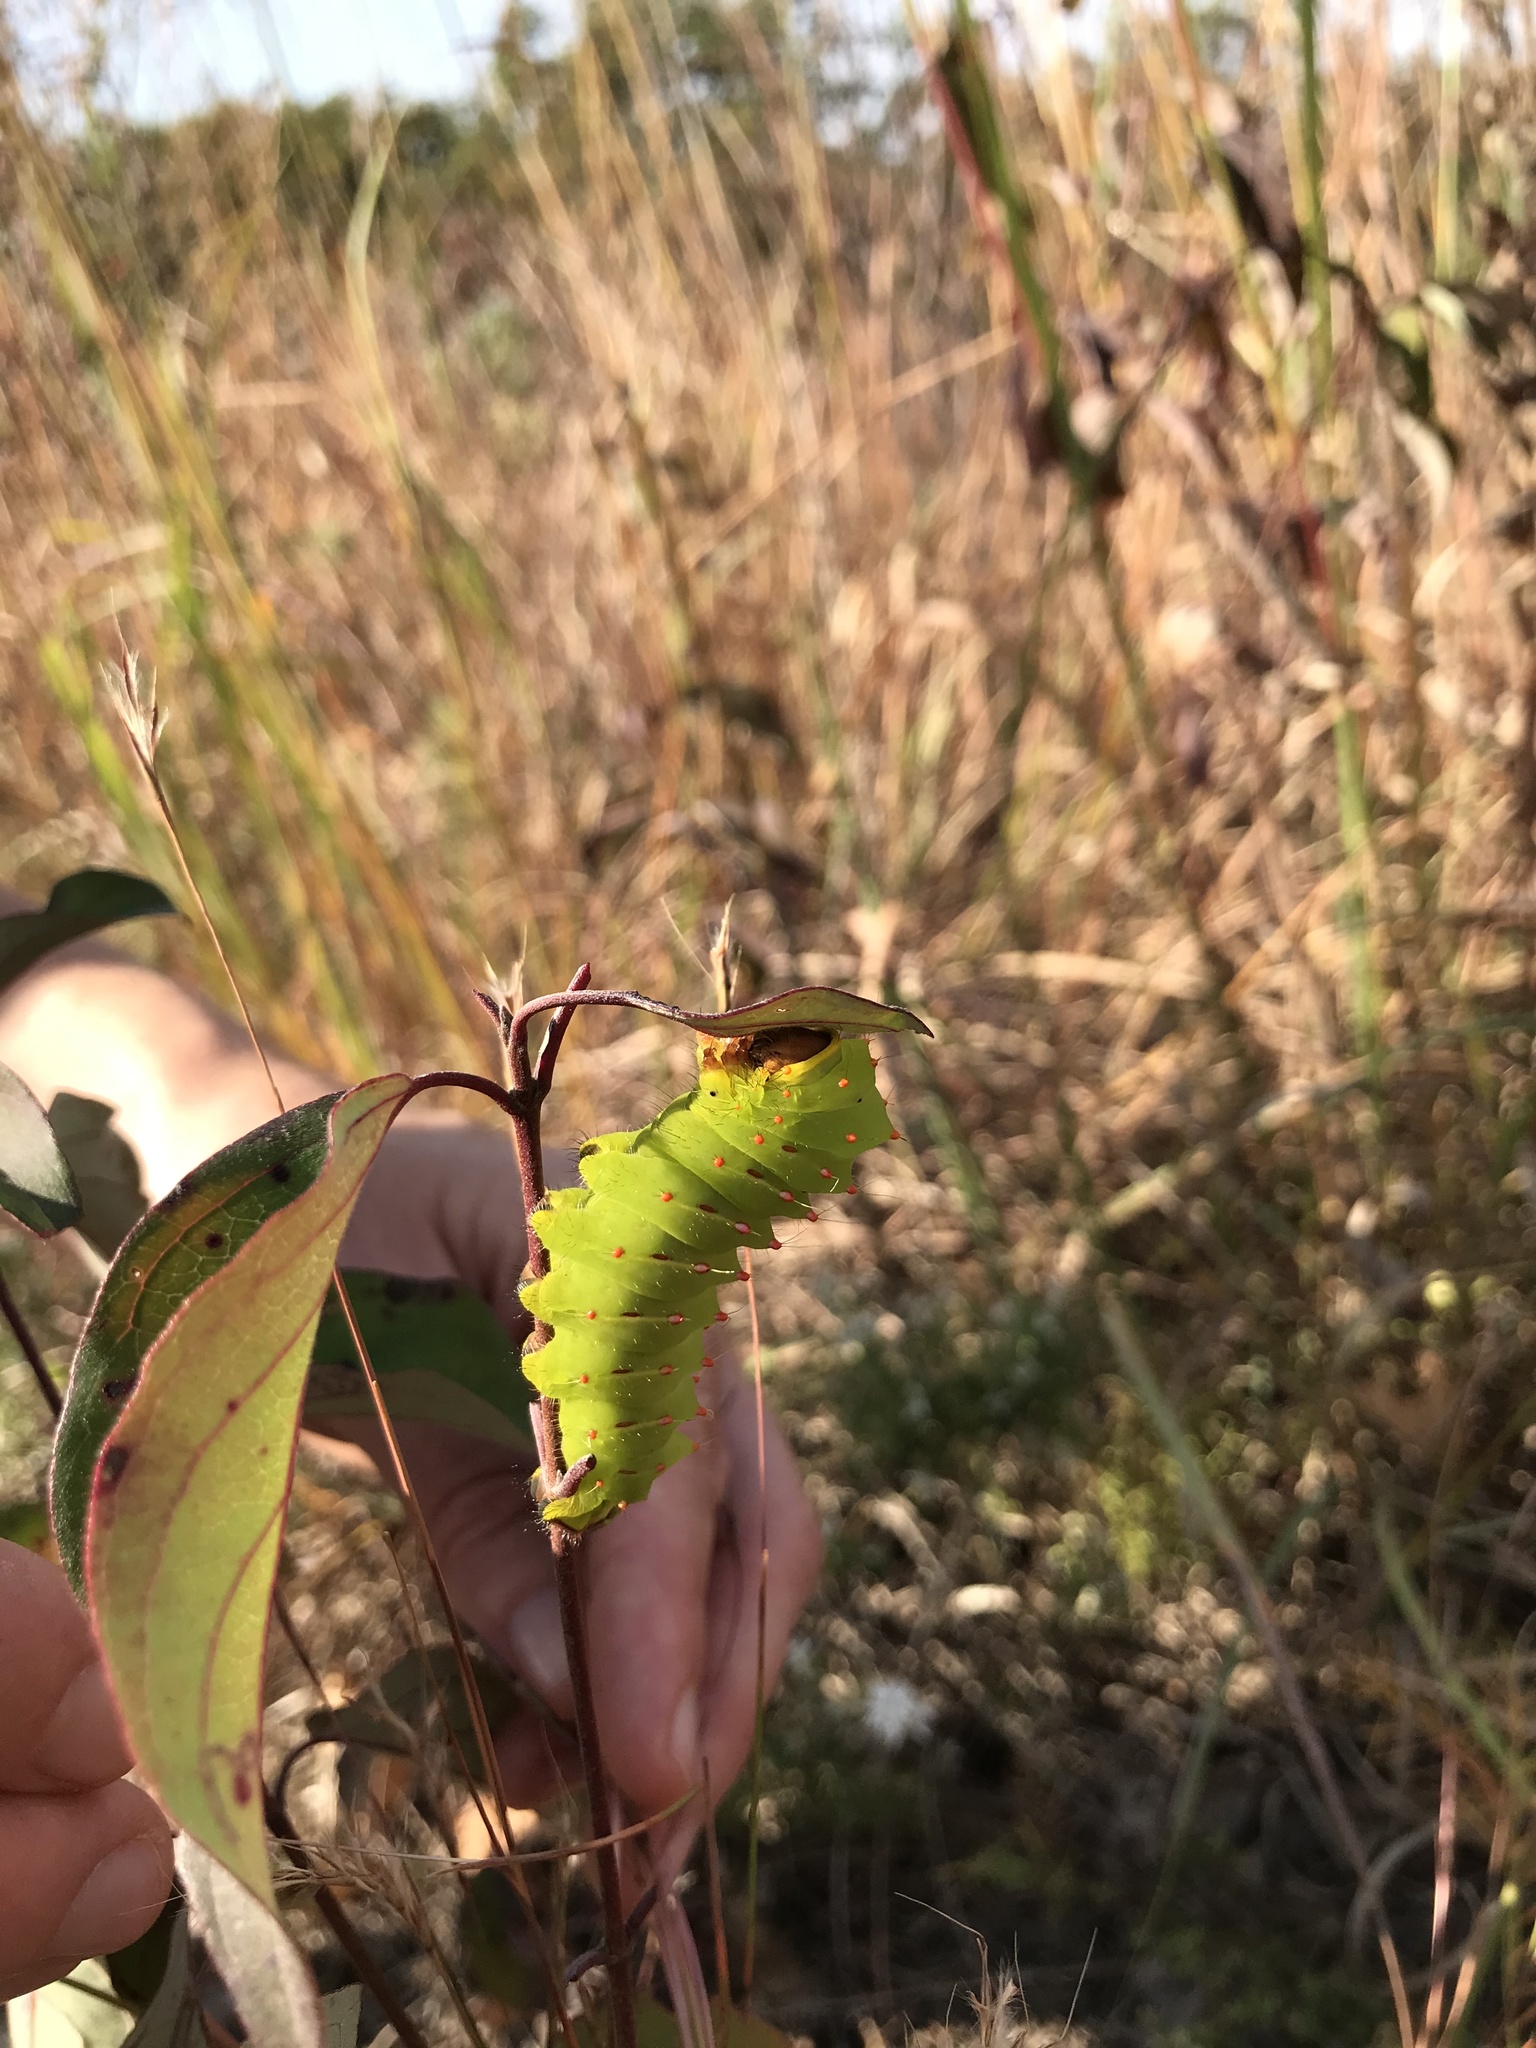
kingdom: Animalia
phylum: Arthropoda
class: Insecta
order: Lepidoptera
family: Saturniidae
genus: Antheraea
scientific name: Antheraea polyphemus
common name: Polyphemus moth
